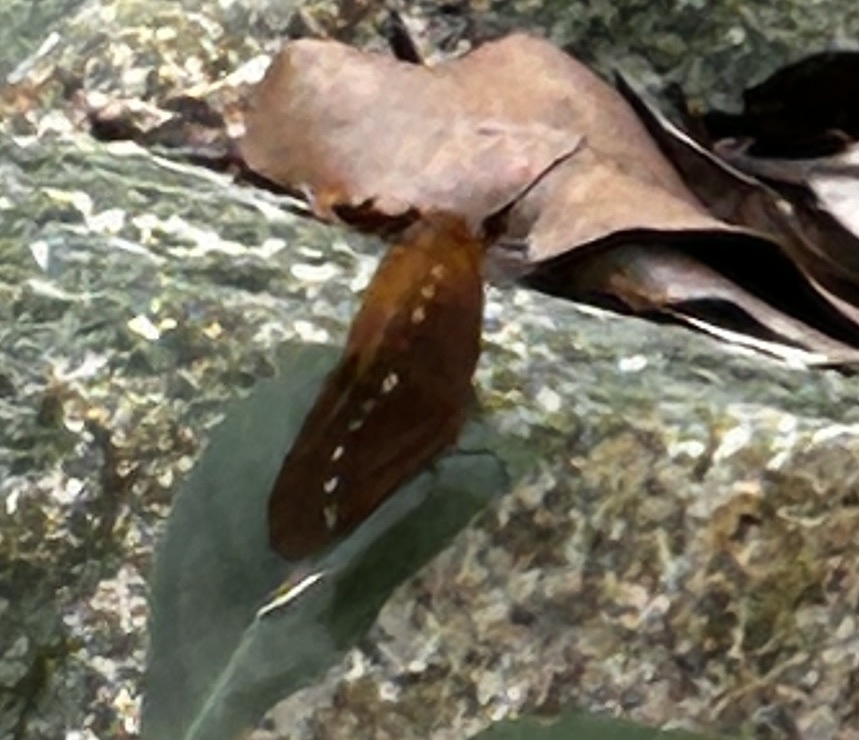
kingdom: Animalia
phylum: Arthropoda
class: Insecta
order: Lepidoptera
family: Nymphalidae
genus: Faunis
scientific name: Faunis eumeus
